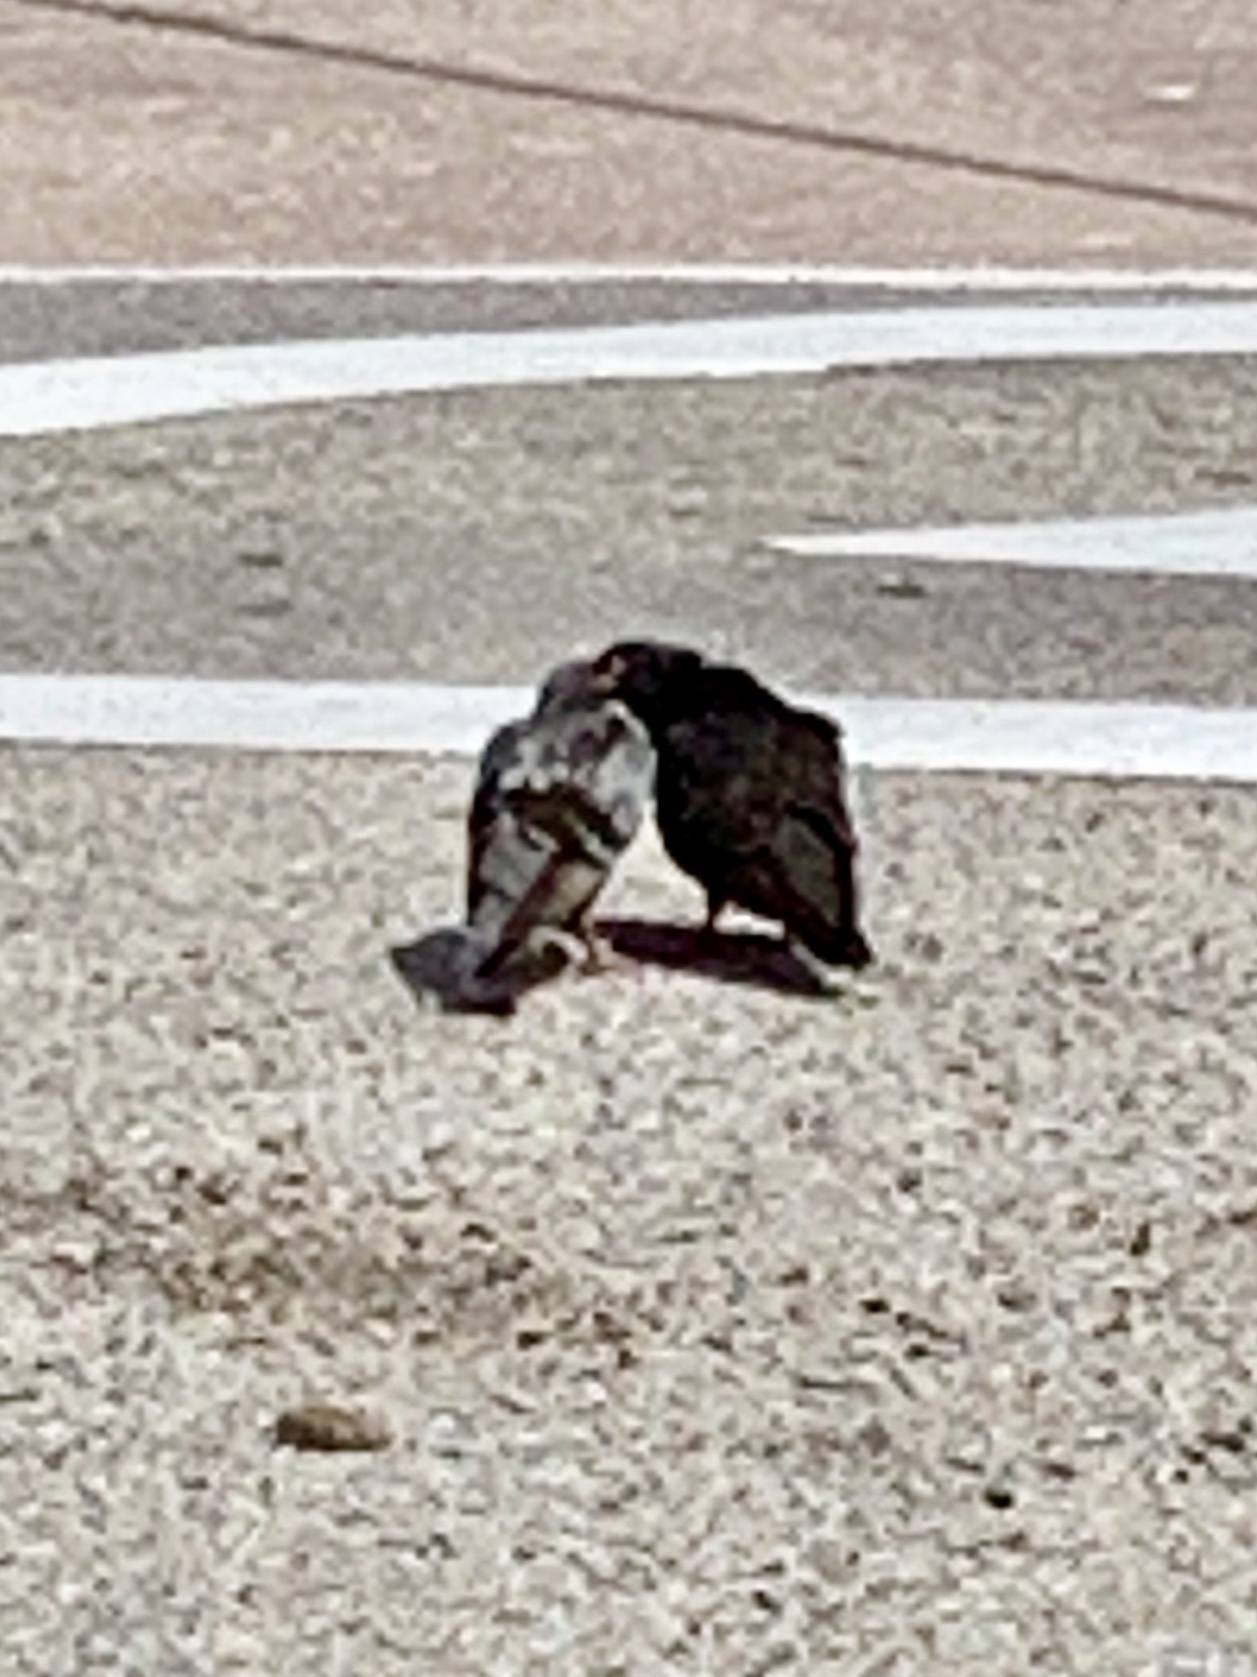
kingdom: Animalia
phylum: Chordata
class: Aves
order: Columbiformes
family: Columbidae
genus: Columba
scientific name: Columba livia
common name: Rock pigeon
